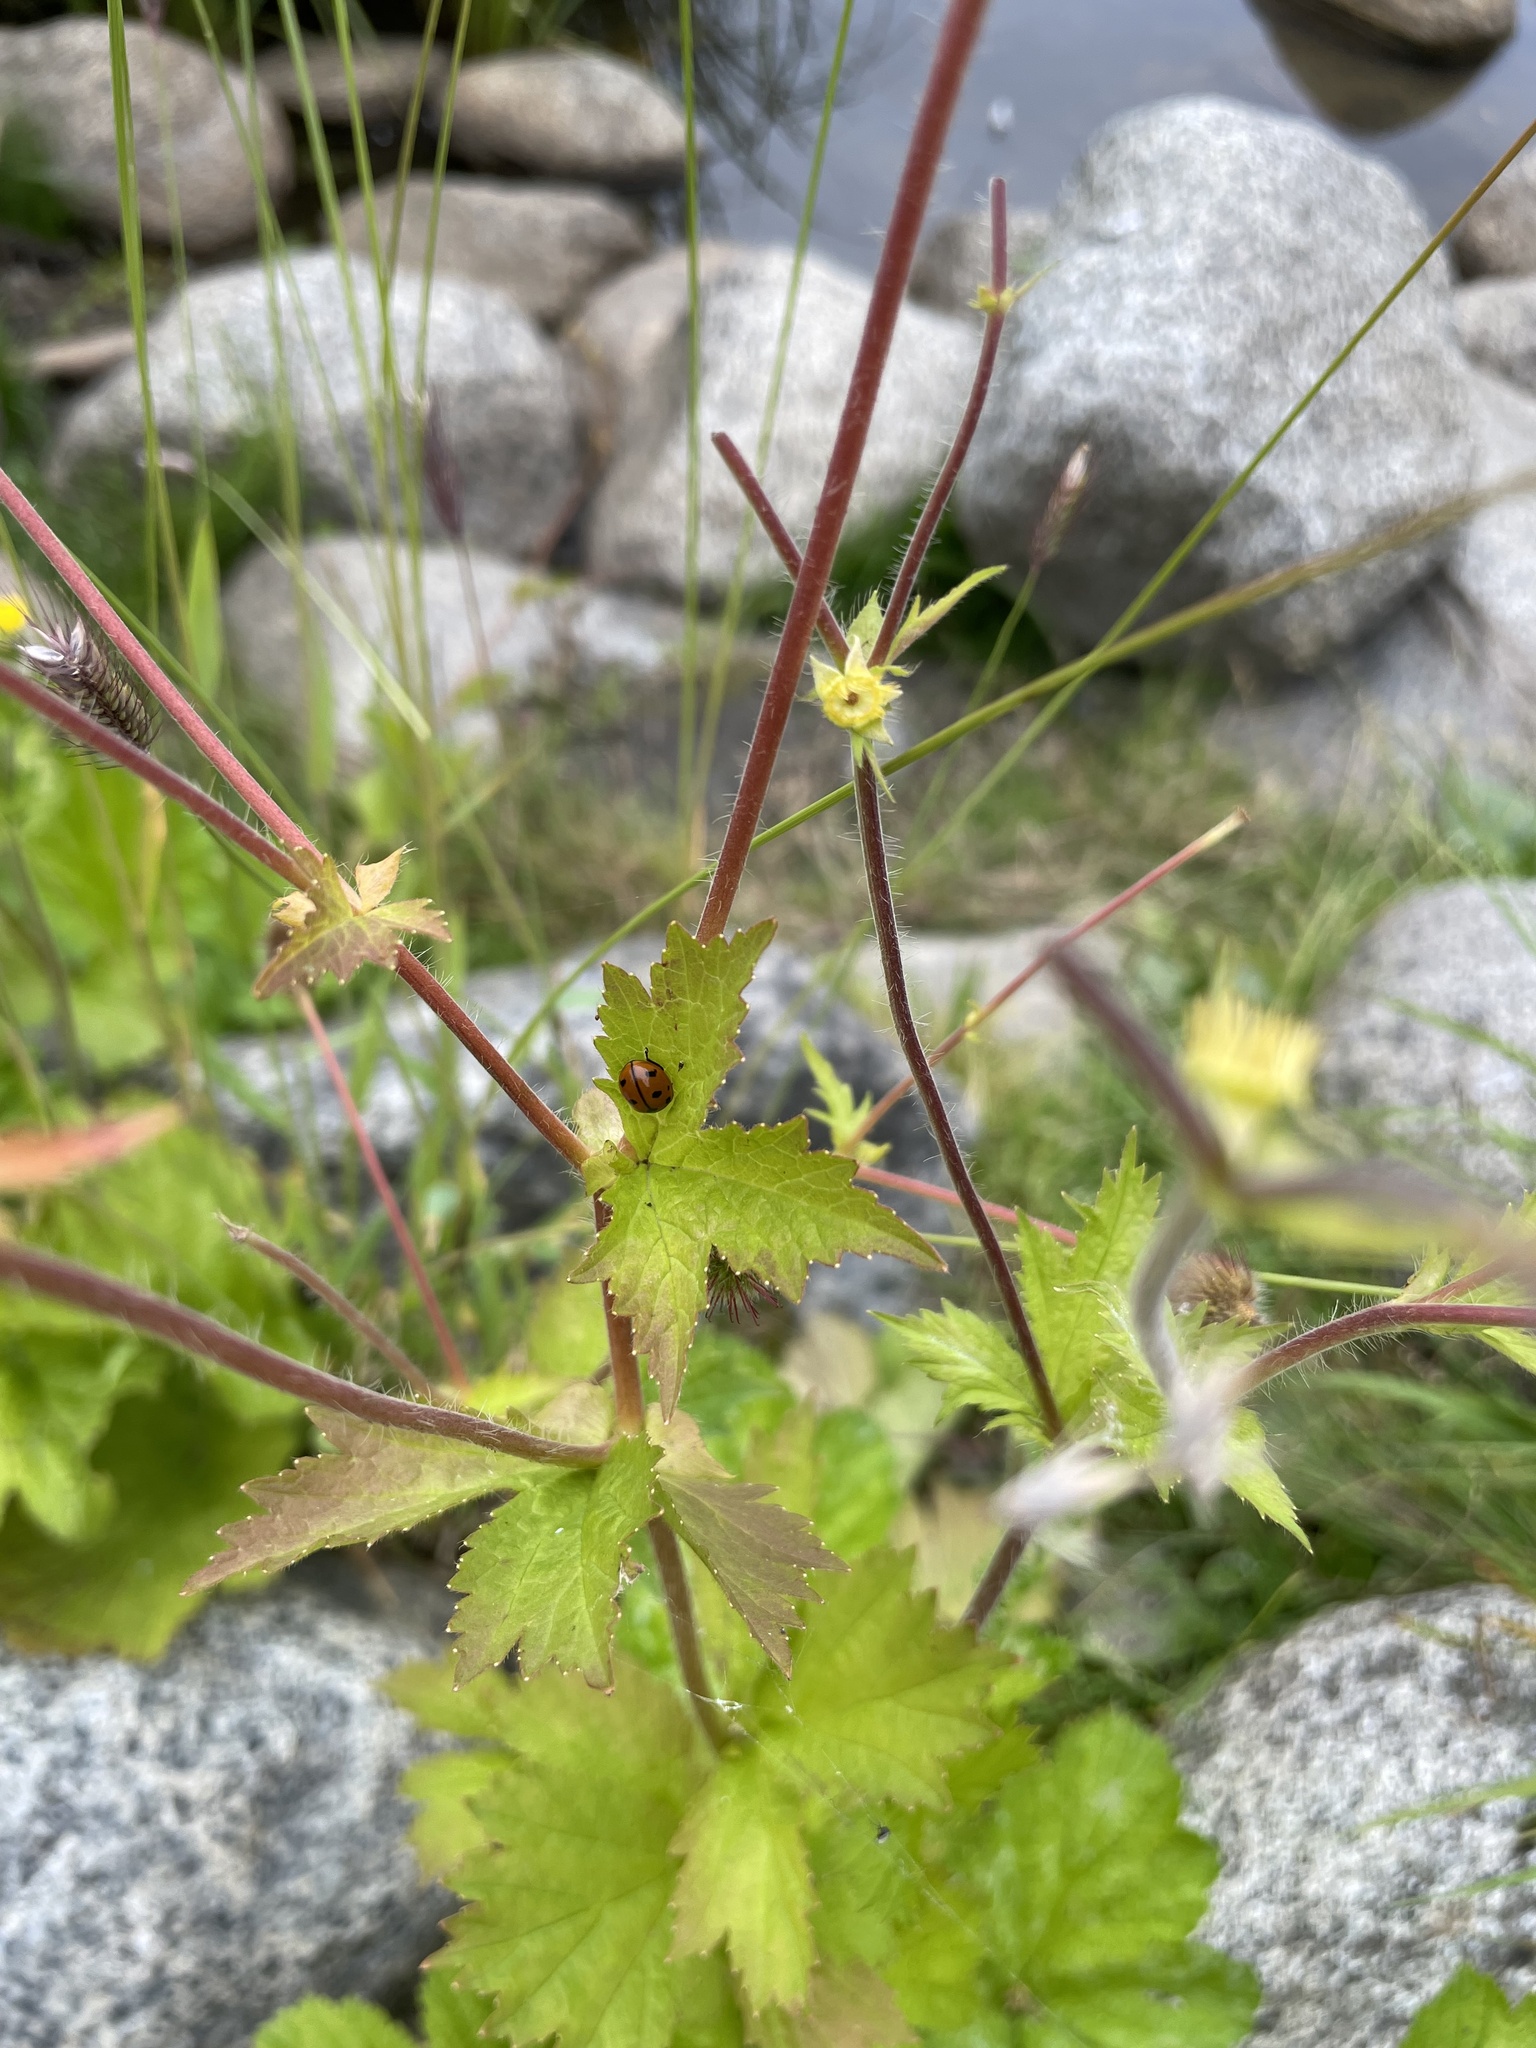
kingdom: Animalia
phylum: Arthropoda
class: Insecta
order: Coleoptera
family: Coccinellidae
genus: Coccinella
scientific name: Coccinella californica
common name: Lady beetle
